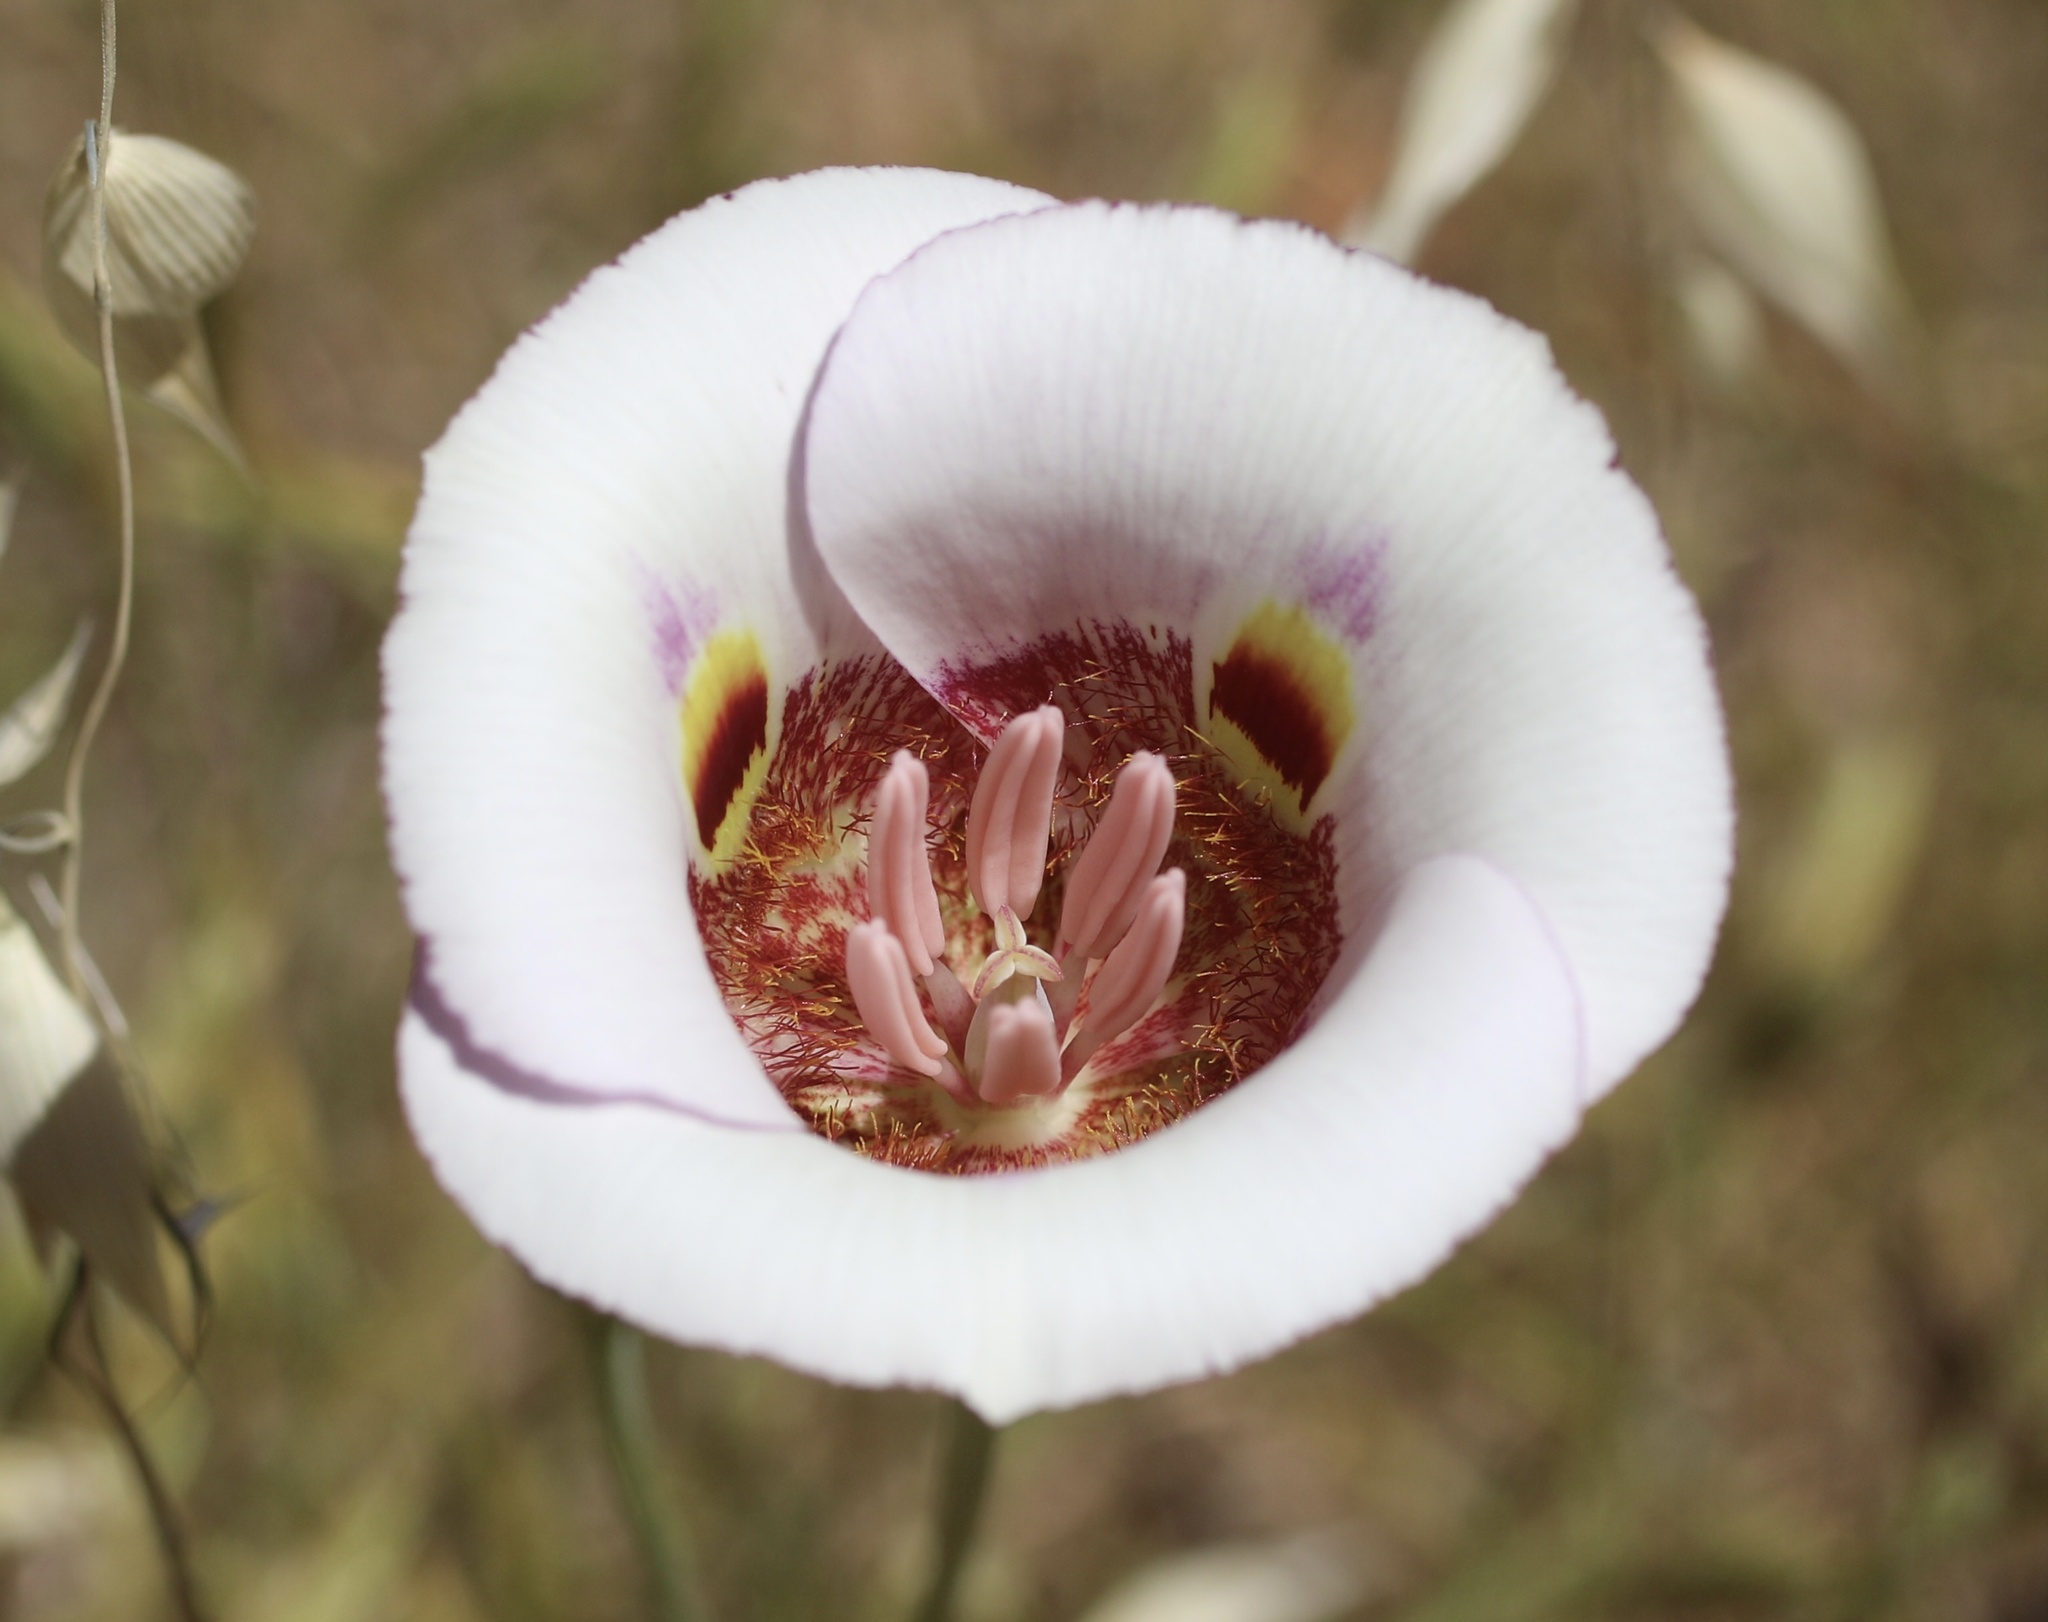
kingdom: Plantae
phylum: Tracheophyta
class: Liliopsida
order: Liliales
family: Liliaceae
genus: Calochortus
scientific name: Calochortus argillosus
